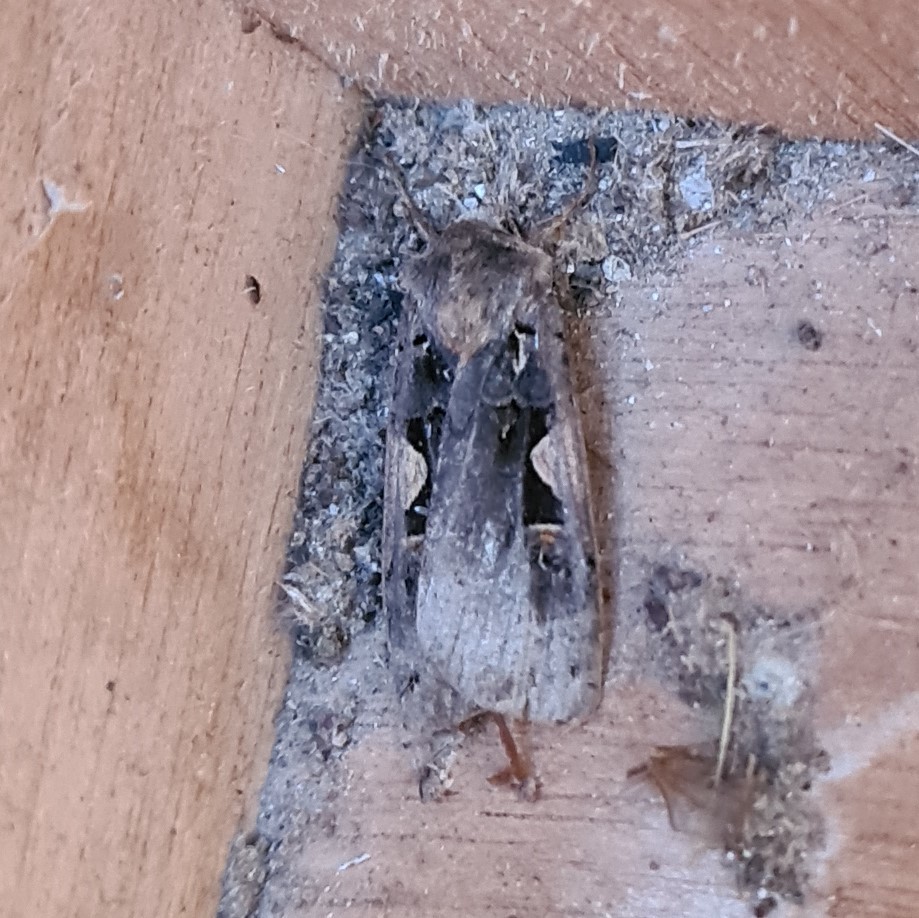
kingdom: Animalia
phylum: Arthropoda
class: Insecta
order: Lepidoptera
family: Noctuidae
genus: Xestia
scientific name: Xestia c-nigrum
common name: Setaceous hebrew character
